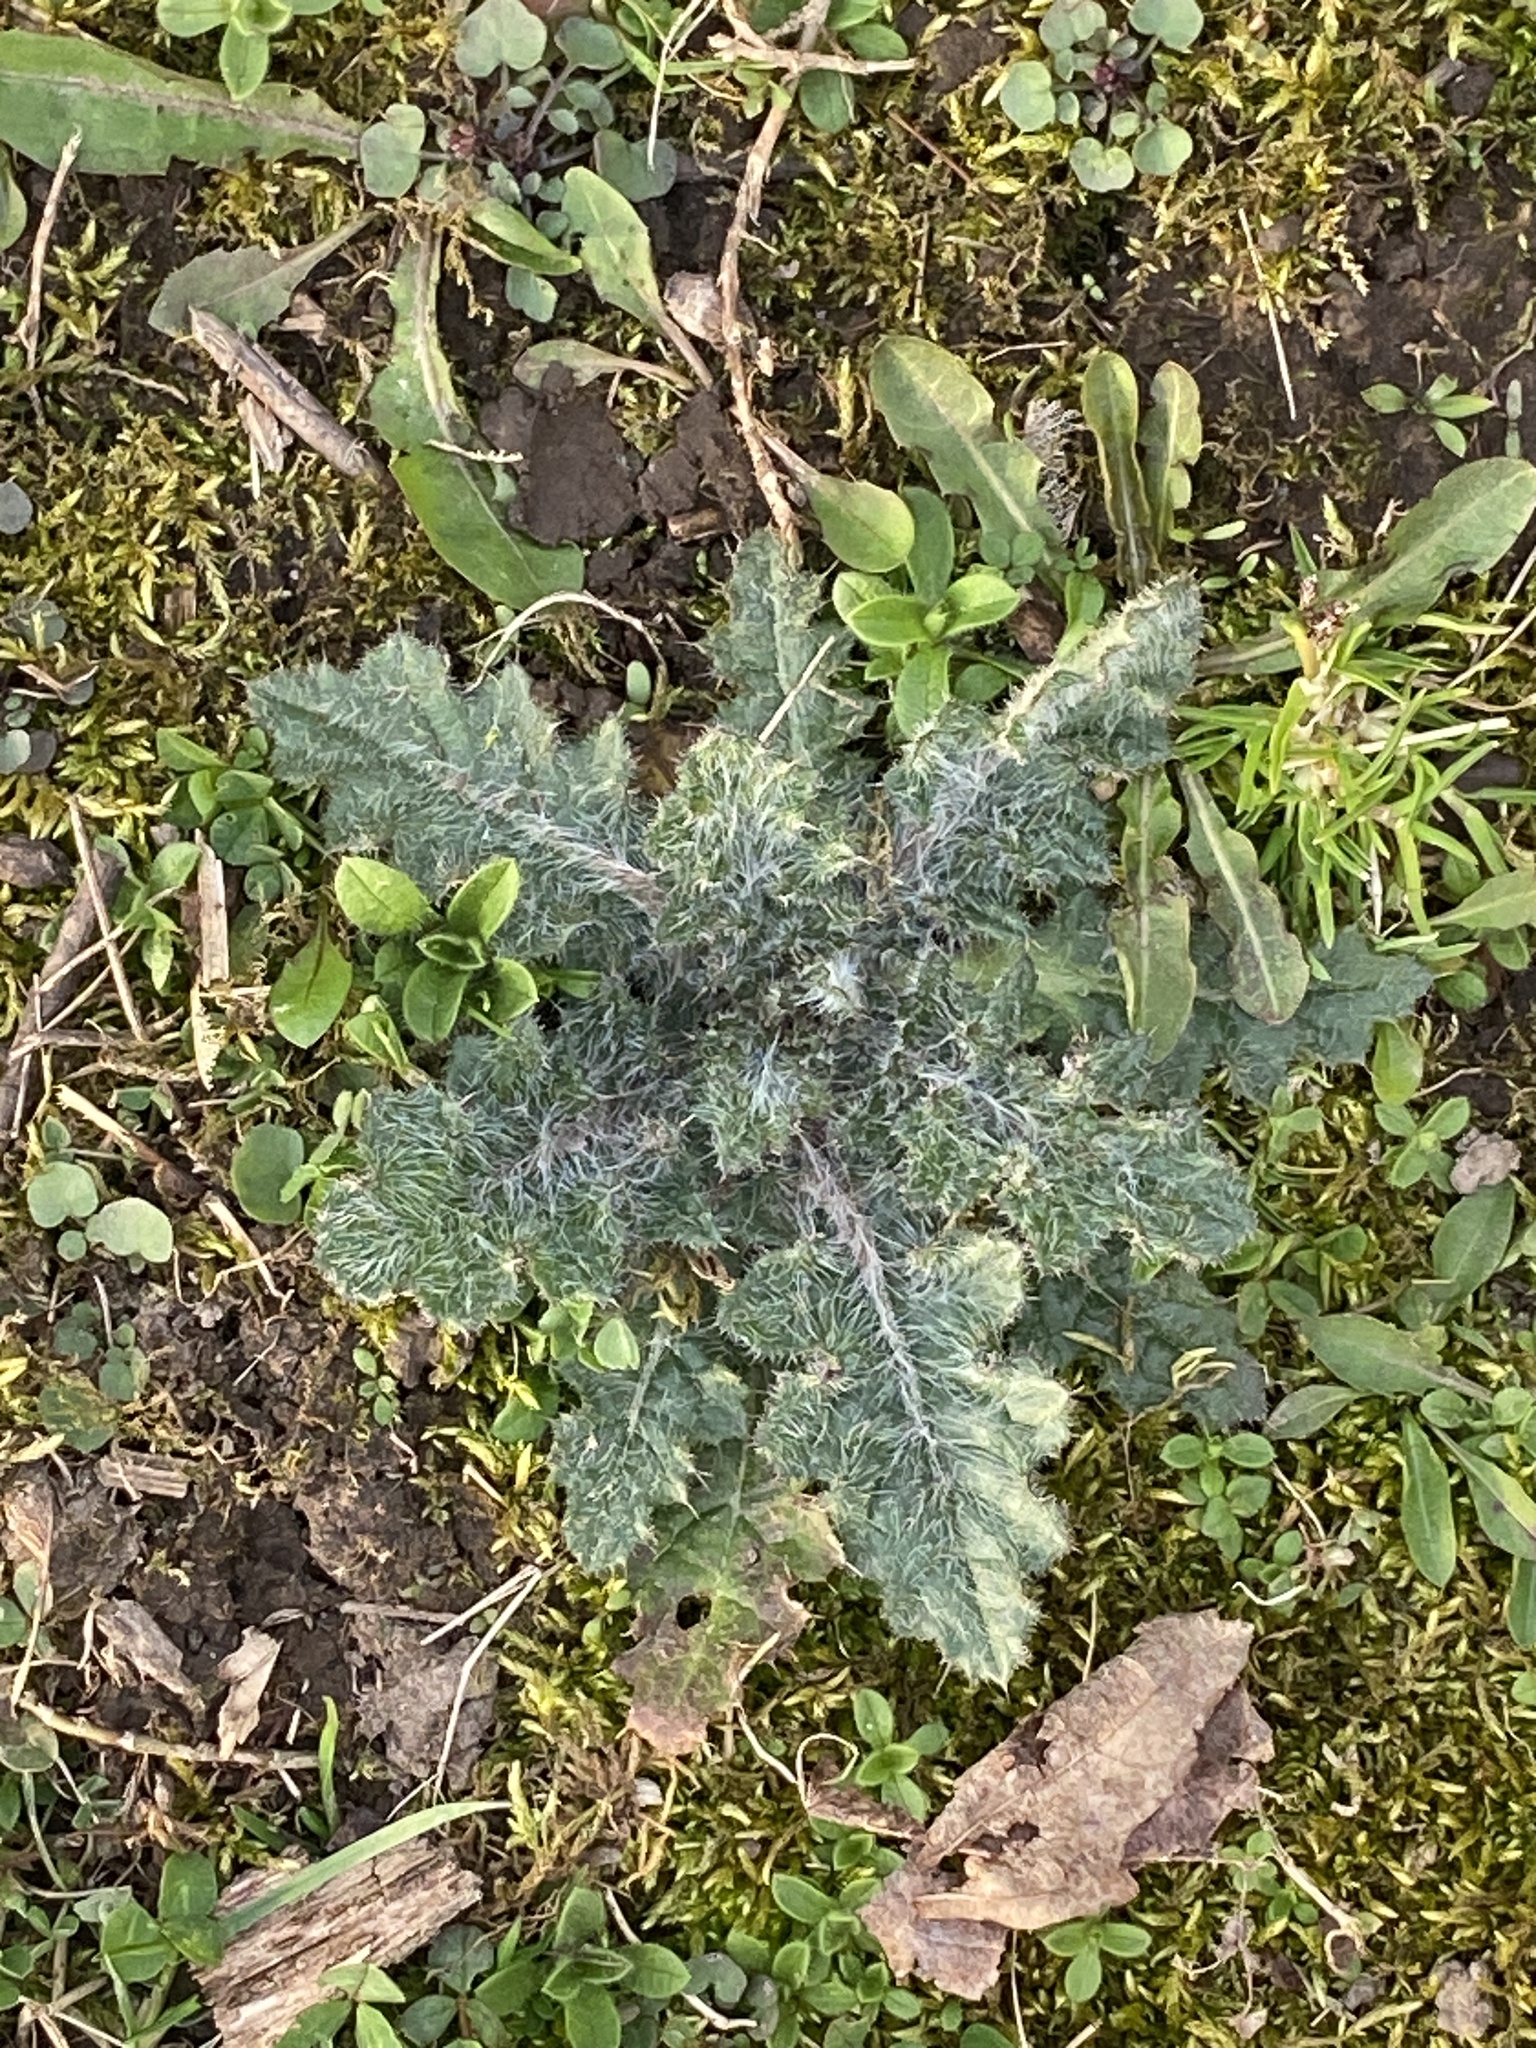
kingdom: Plantae
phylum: Tracheophyta
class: Magnoliopsida
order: Asterales
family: Asteraceae
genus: Cirsium
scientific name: Cirsium vulgare
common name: Bull thistle
